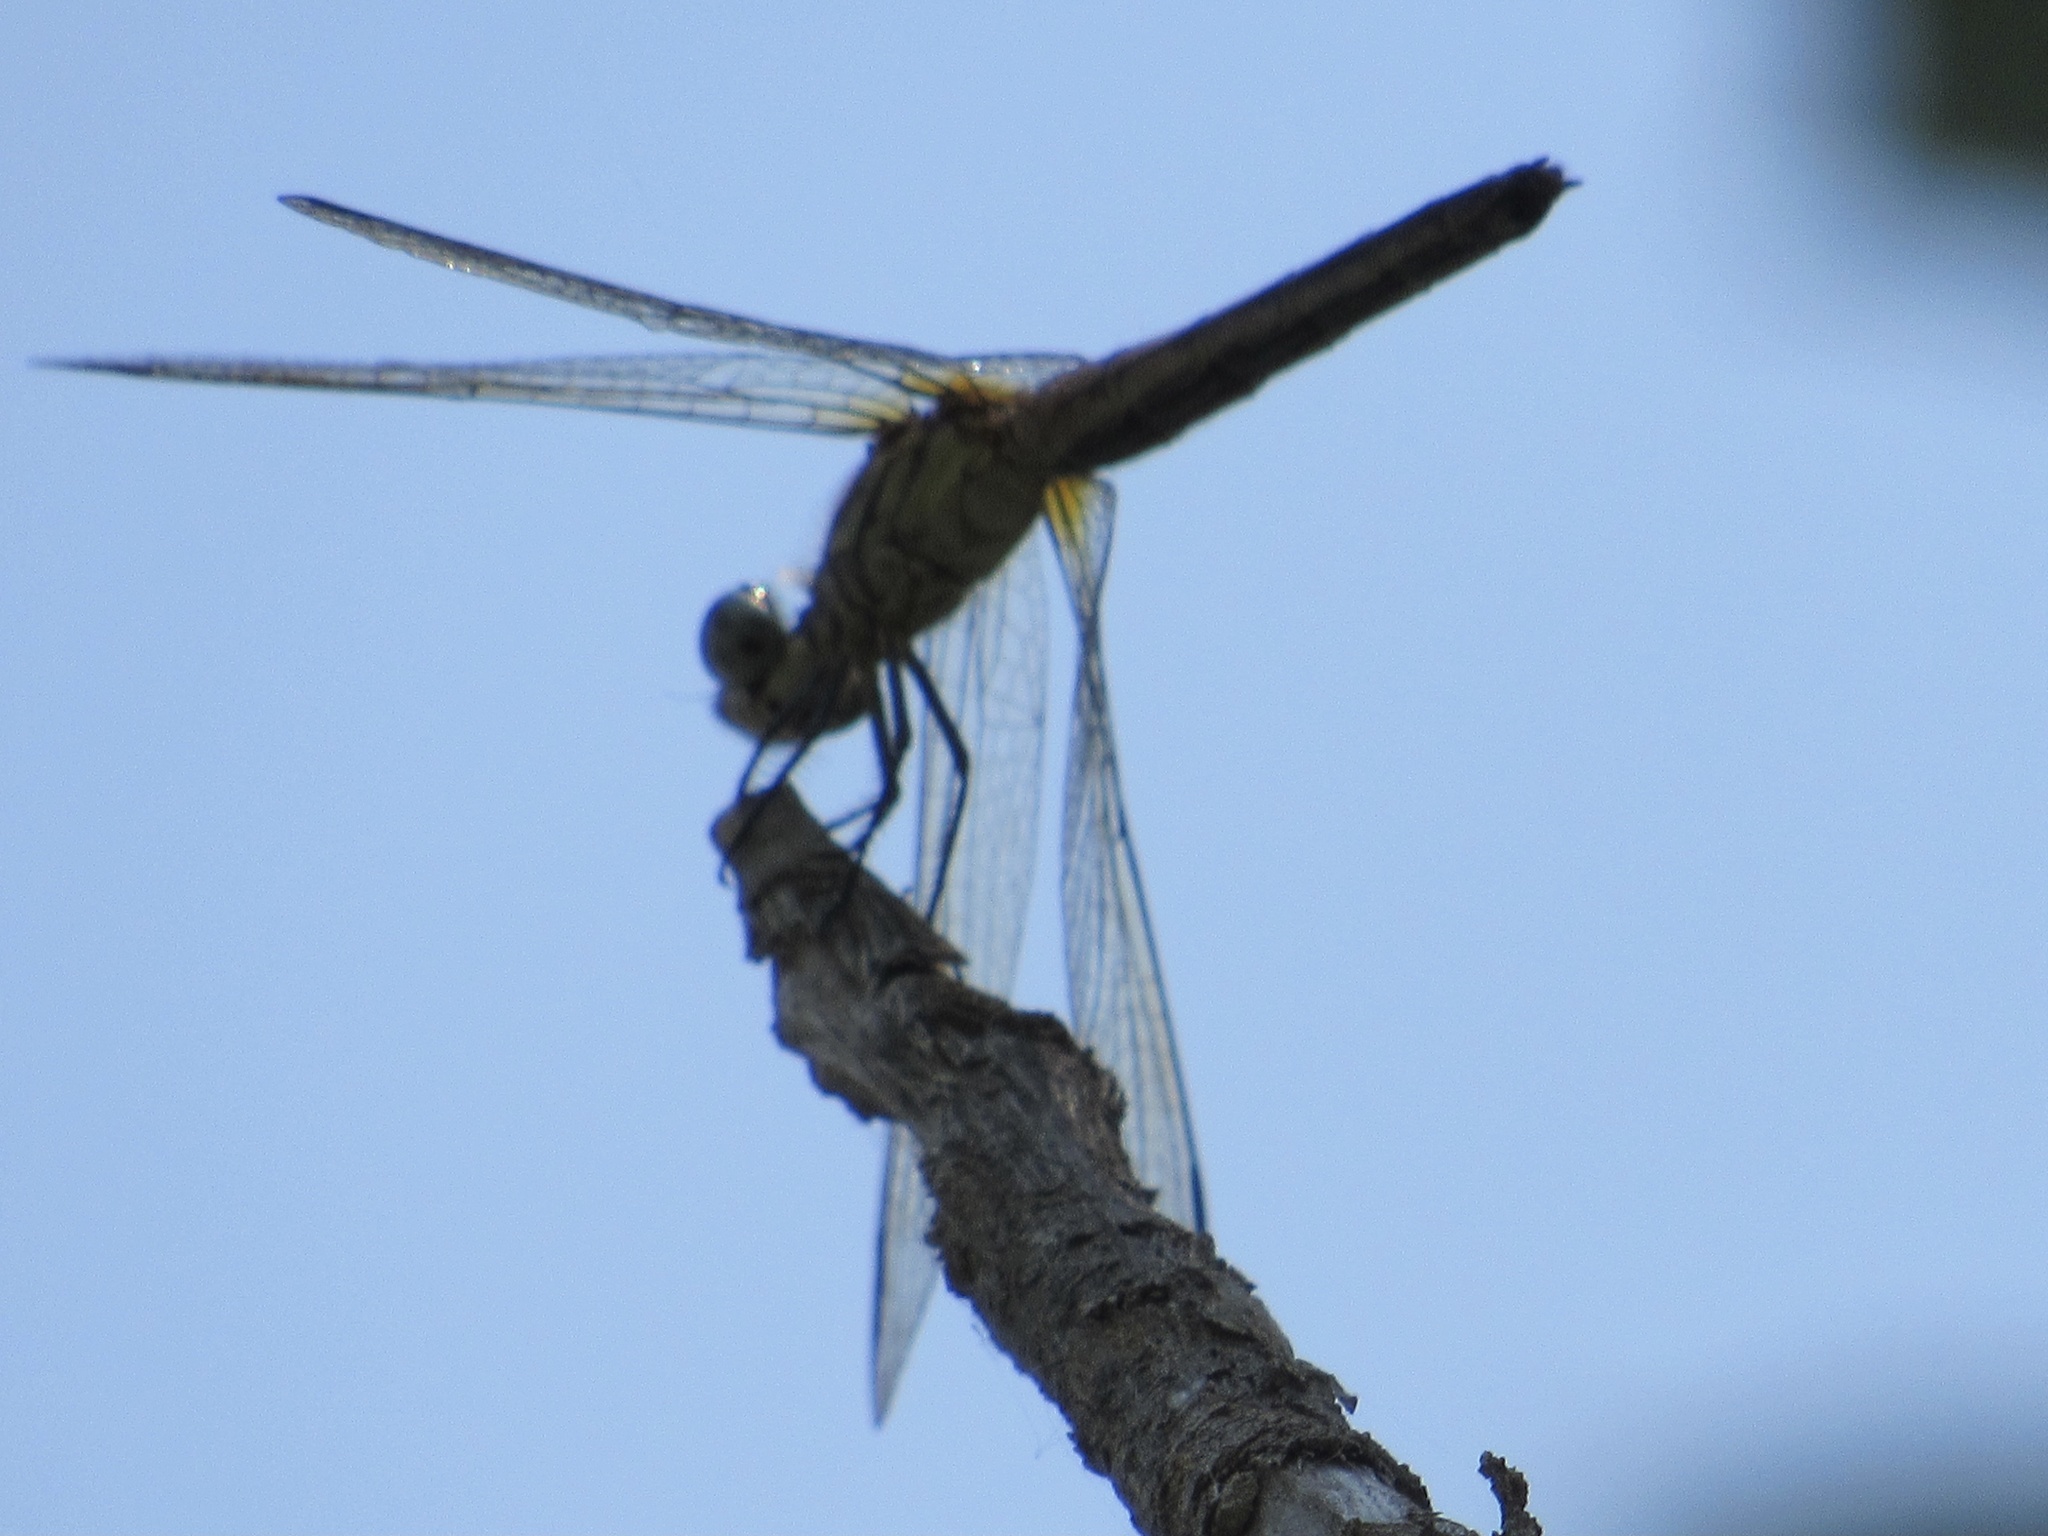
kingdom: Animalia
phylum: Arthropoda
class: Insecta
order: Odonata
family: Libellulidae
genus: Pachydiplax
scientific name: Pachydiplax longipennis
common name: Blue dasher
